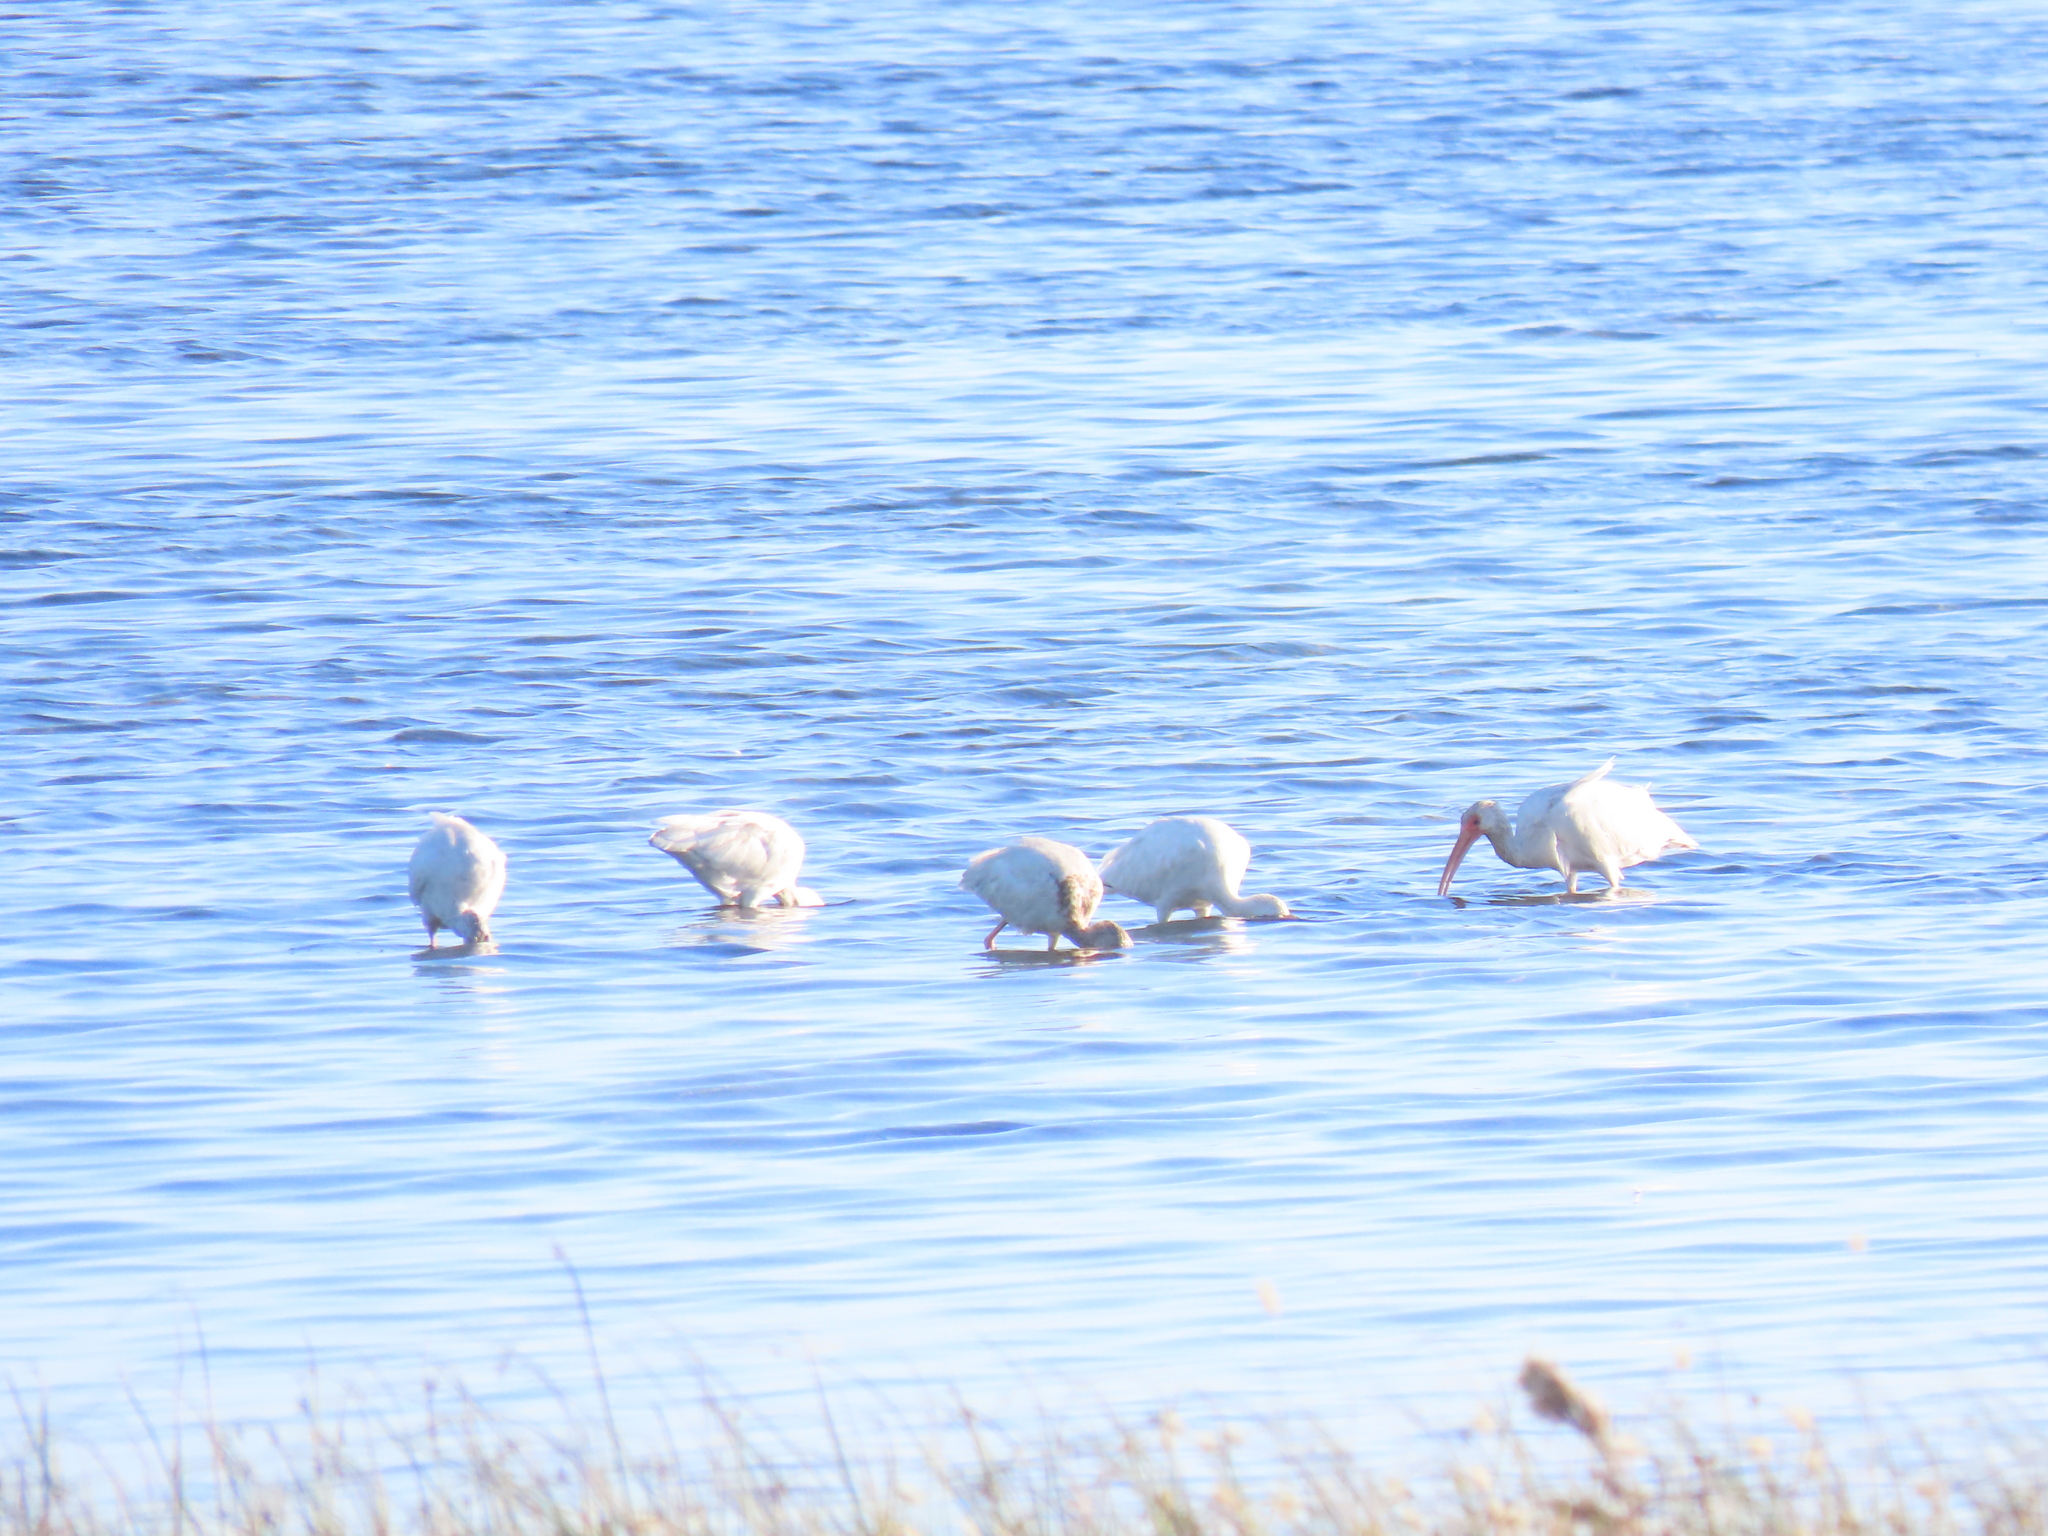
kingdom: Animalia
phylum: Chordata
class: Aves
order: Pelecaniformes
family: Threskiornithidae
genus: Eudocimus
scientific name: Eudocimus albus
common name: White ibis
